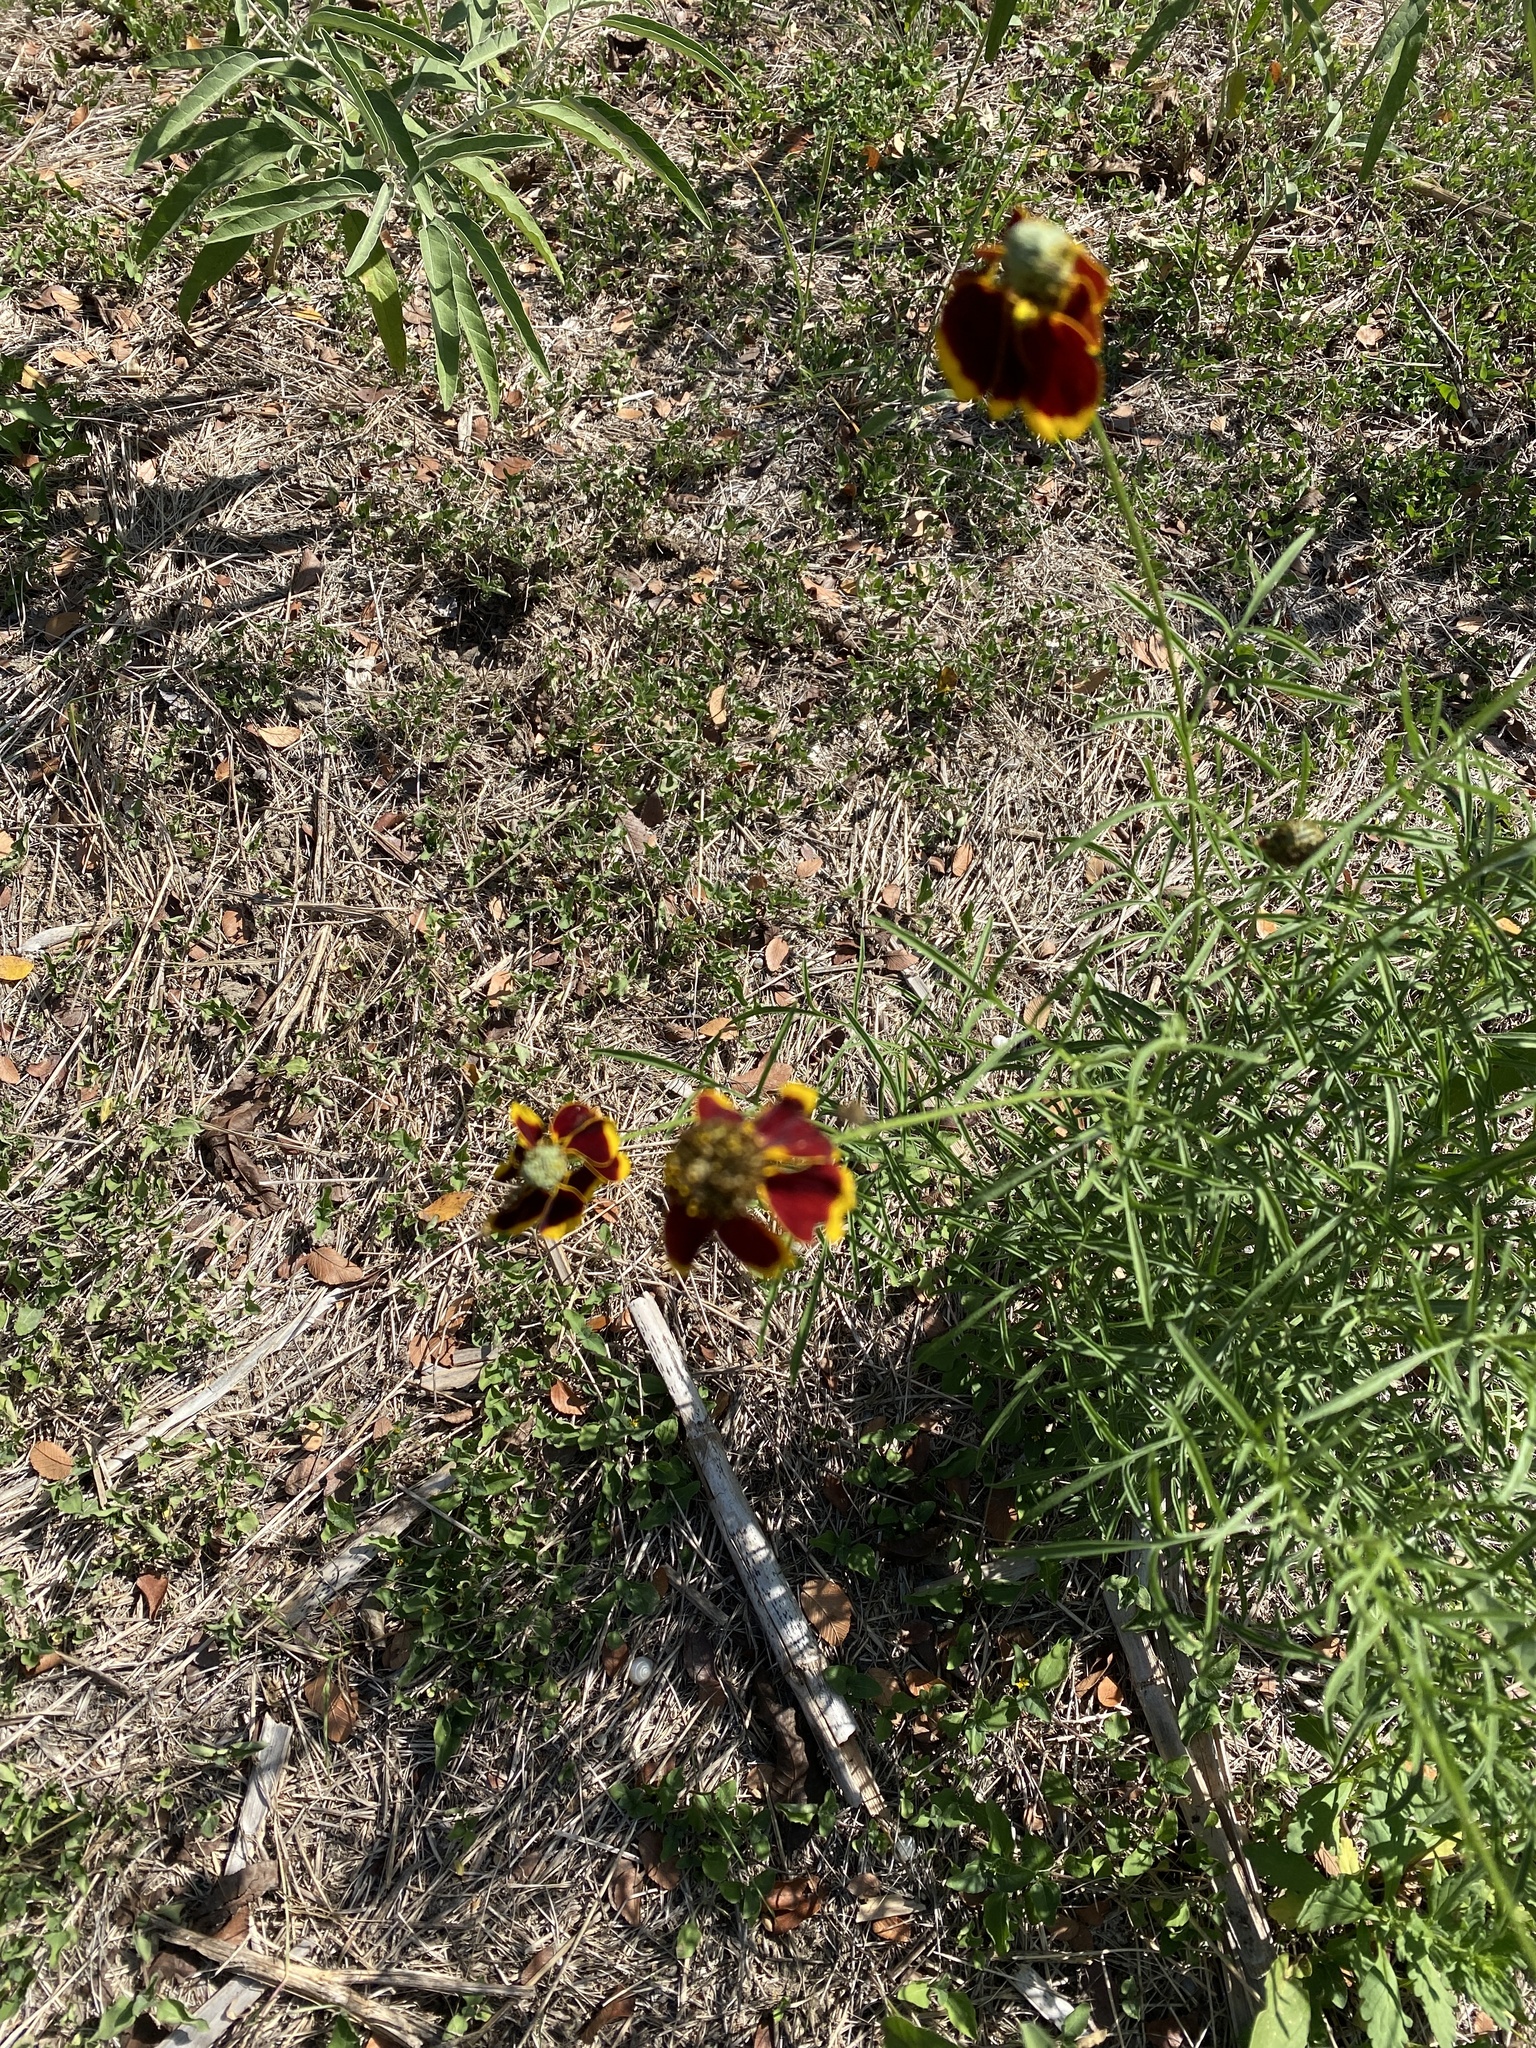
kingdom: Plantae
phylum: Tracheophyta
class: Magnoliopsida
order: Asterales
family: Asteraceae
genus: Ratibida
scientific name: Ratibida columnifera
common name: Prairie coneflower
